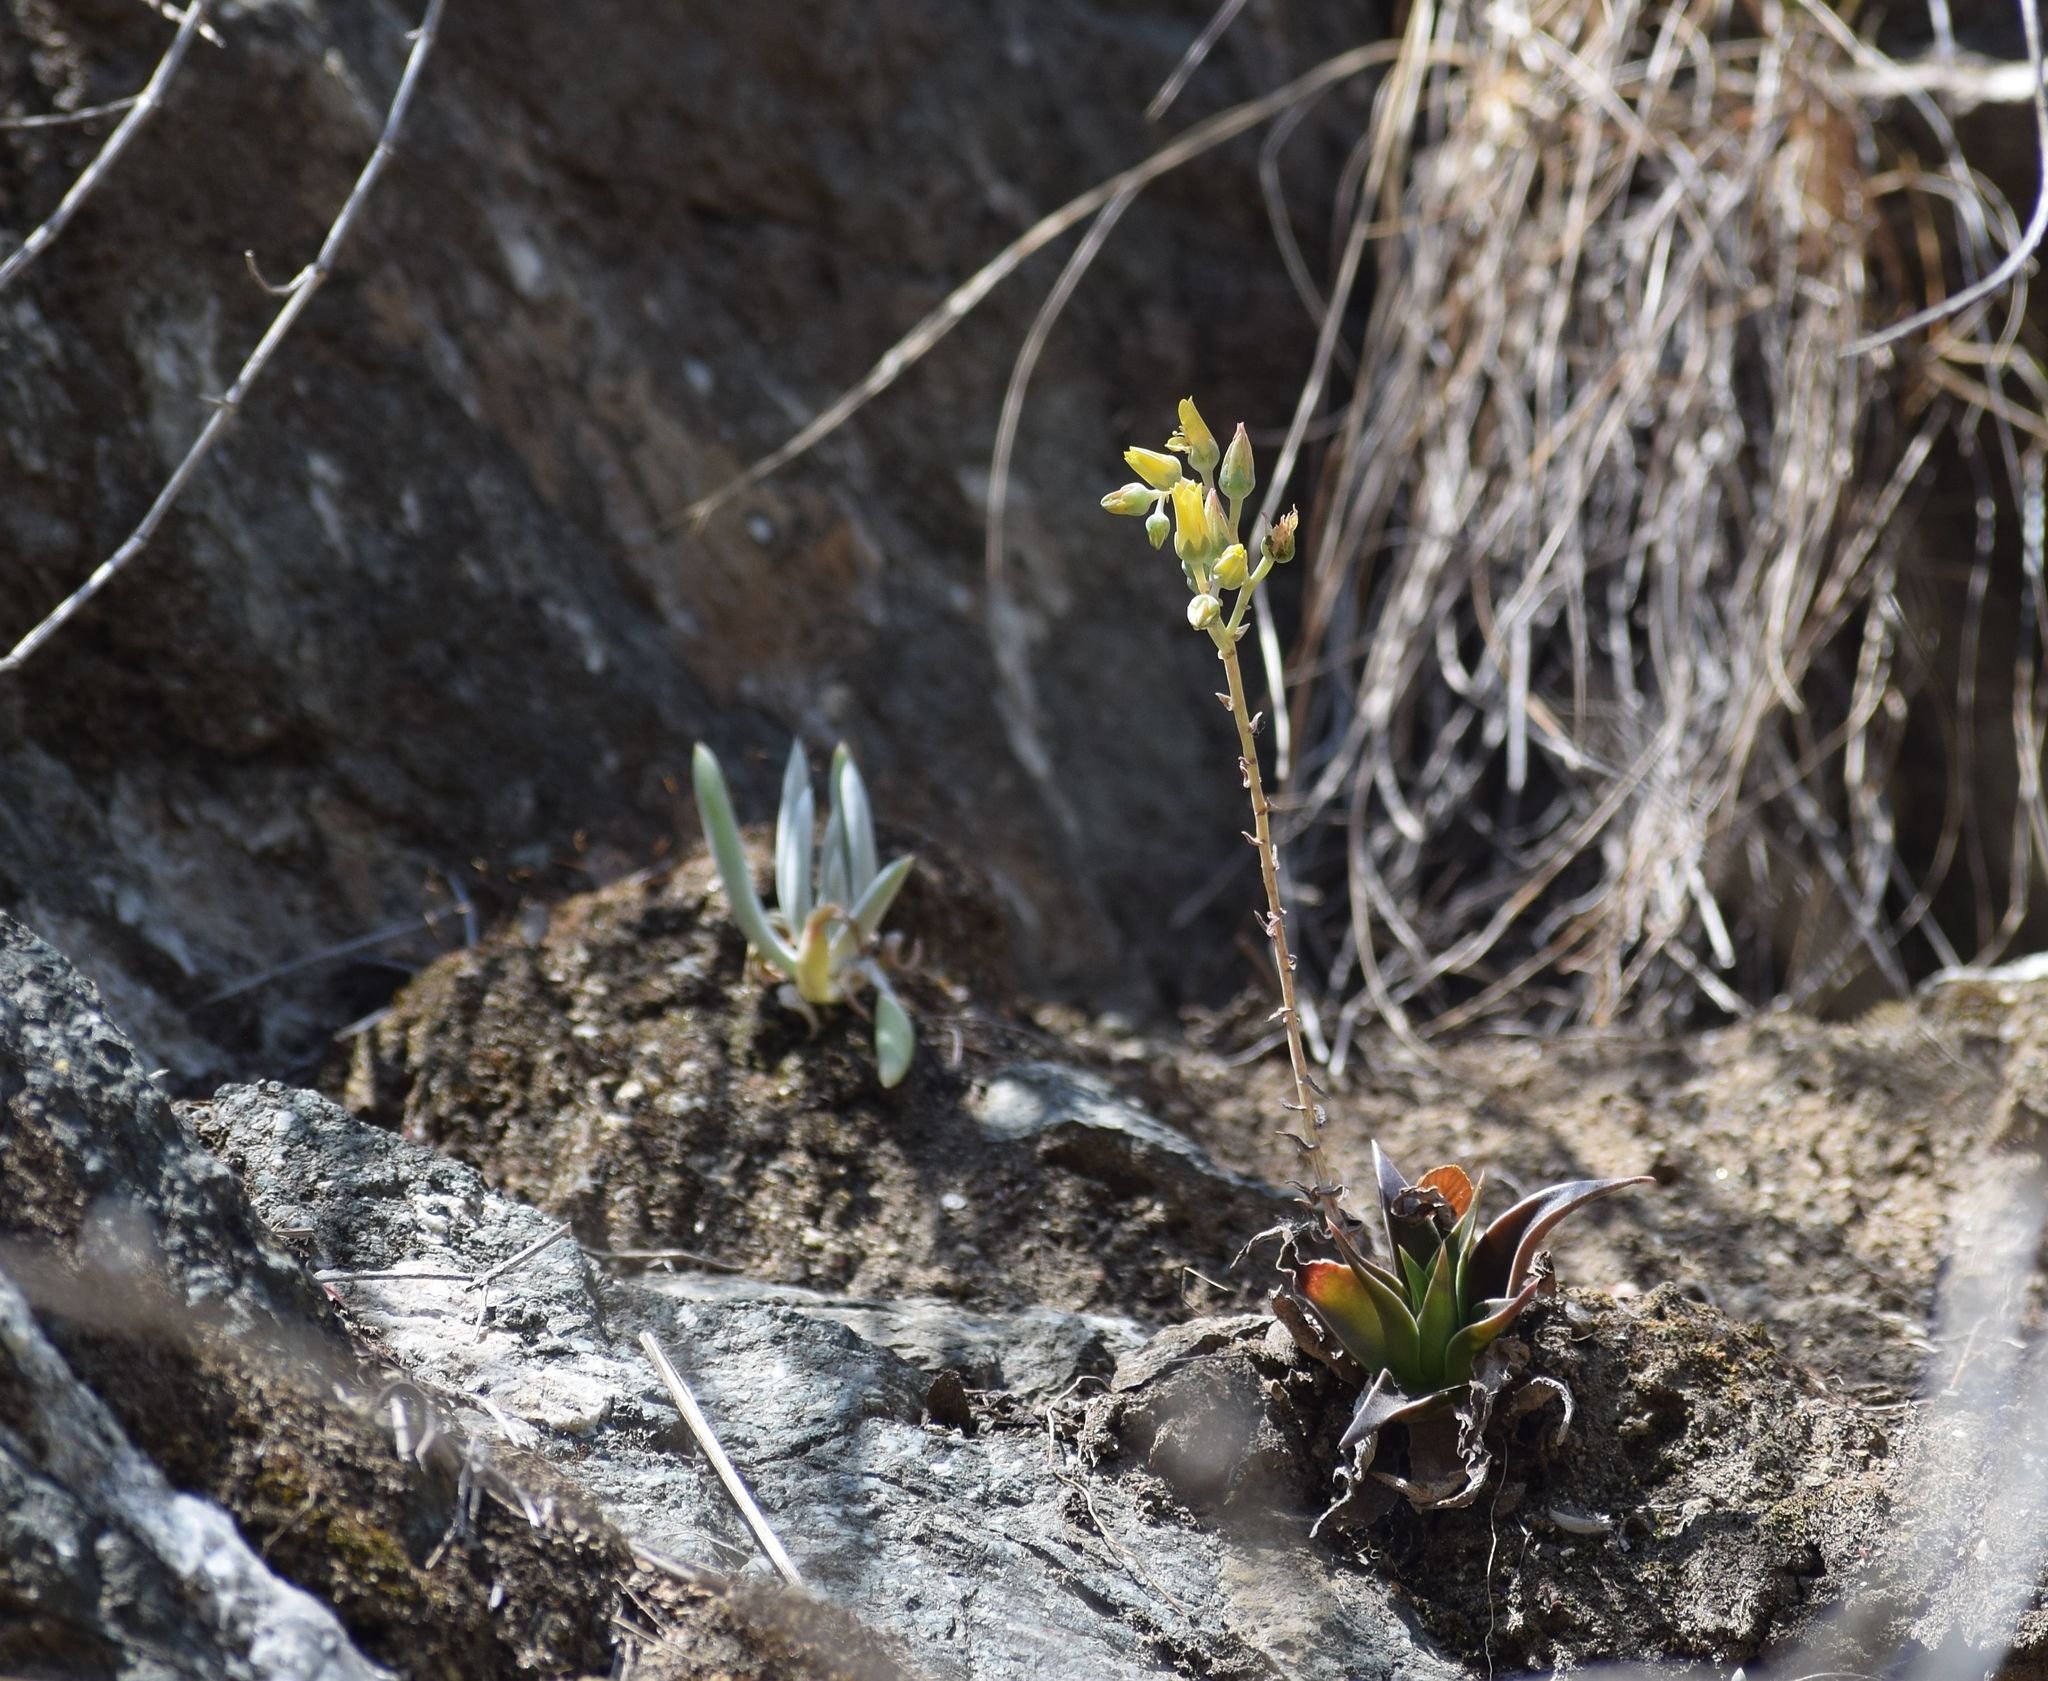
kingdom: Plantae
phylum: Tracheophyta
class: Magnoliopsida
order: Saxifragales
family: Crassulaceae
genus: Dudleya
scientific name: Dudleya lanceolata
